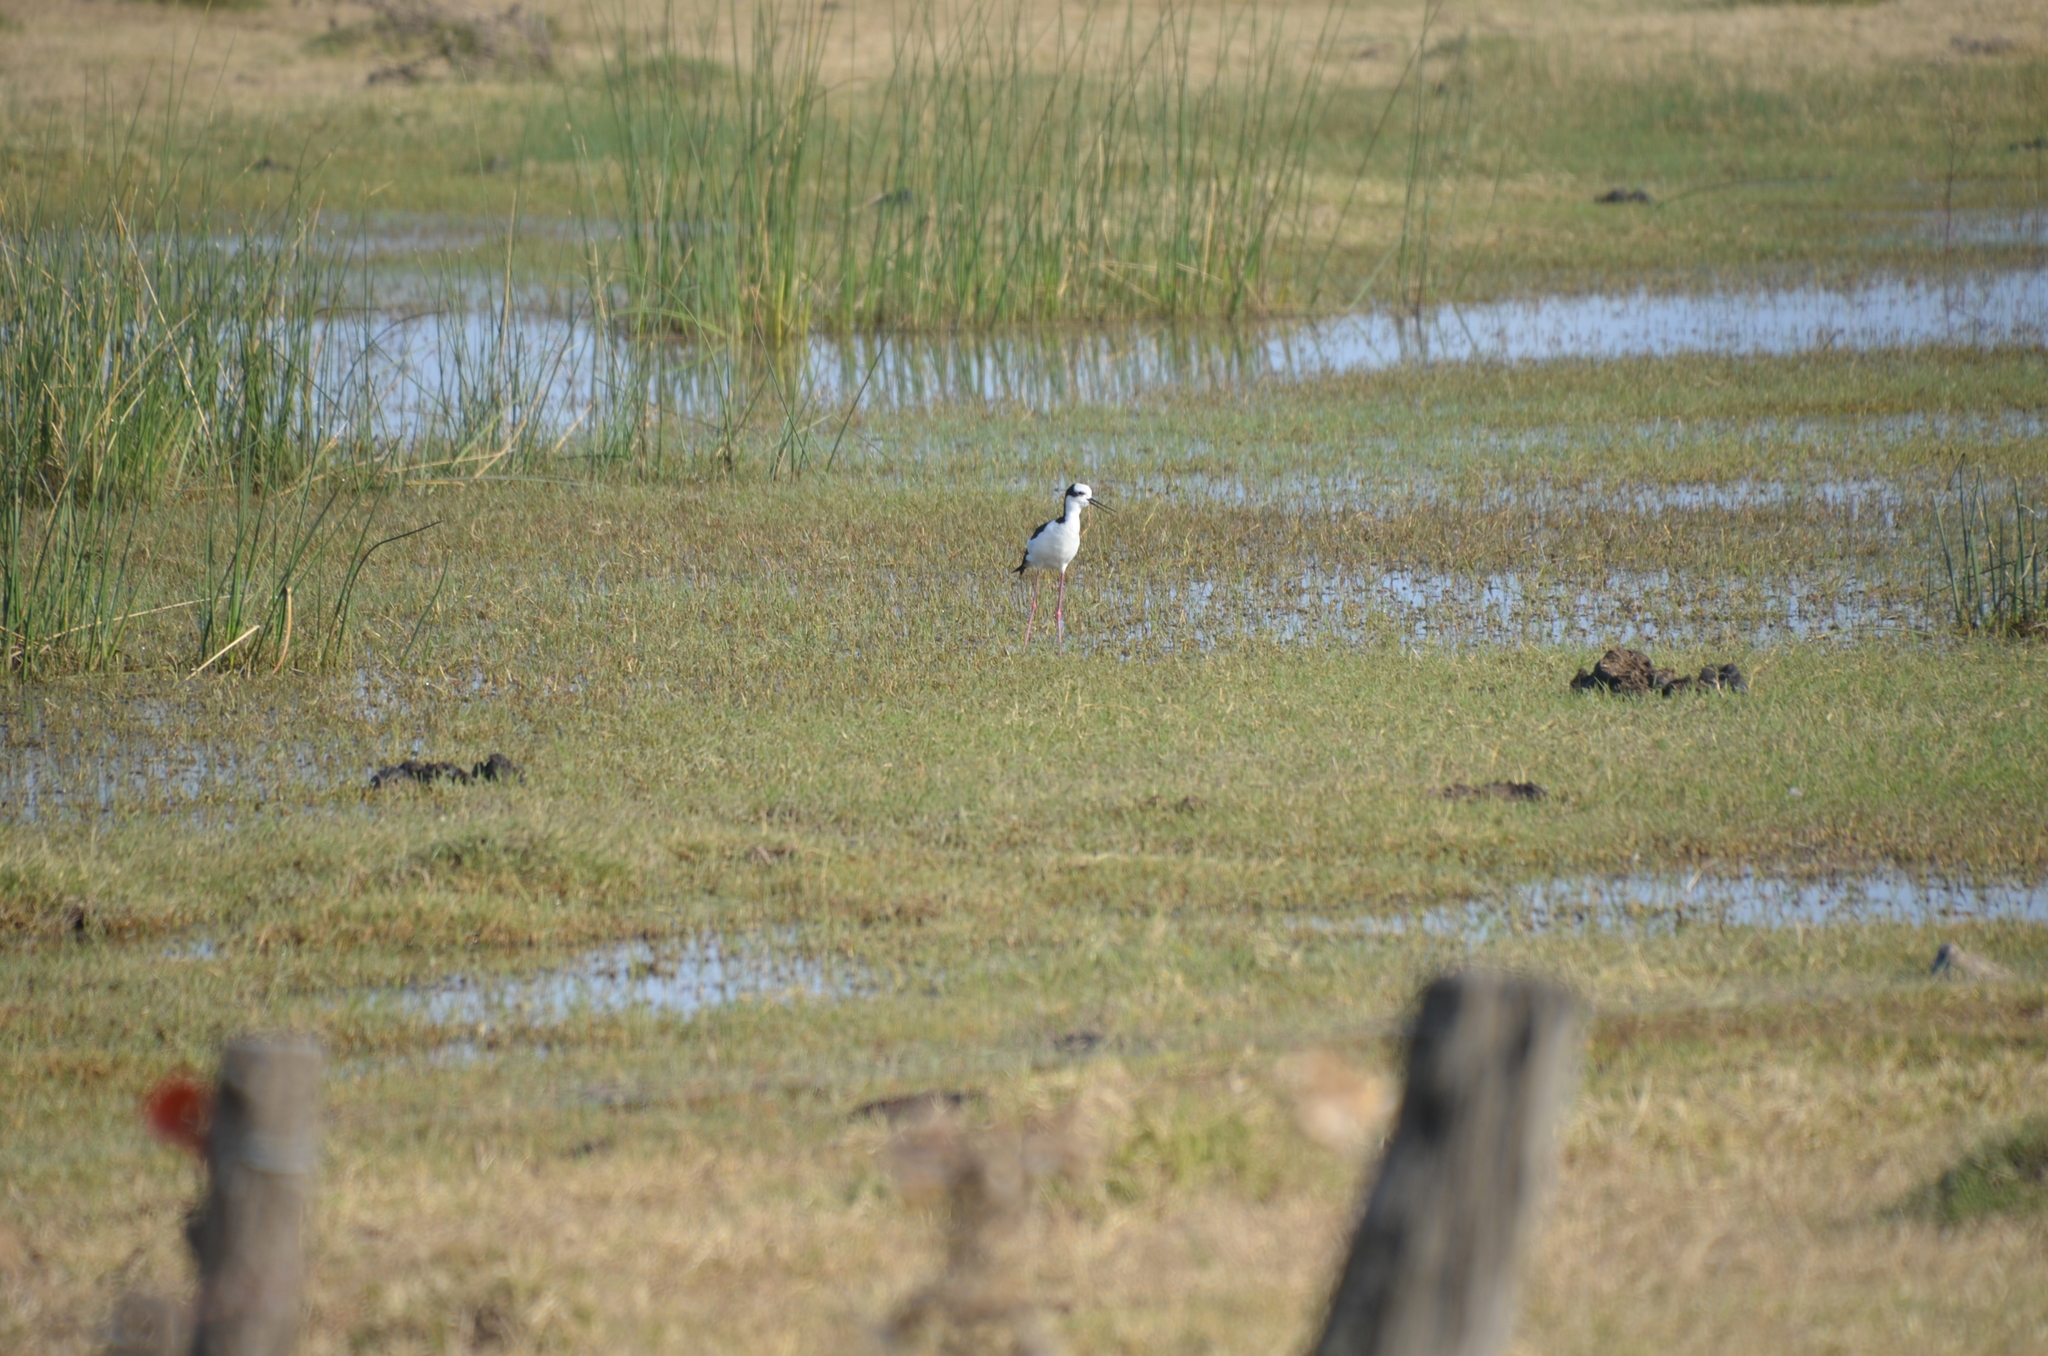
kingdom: Animalia
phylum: Chordata
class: Aves
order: Charadriiformes
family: Recurvirostridae
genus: Himantopus
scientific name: Himantopus mexicanus
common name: Black-necked stilt
